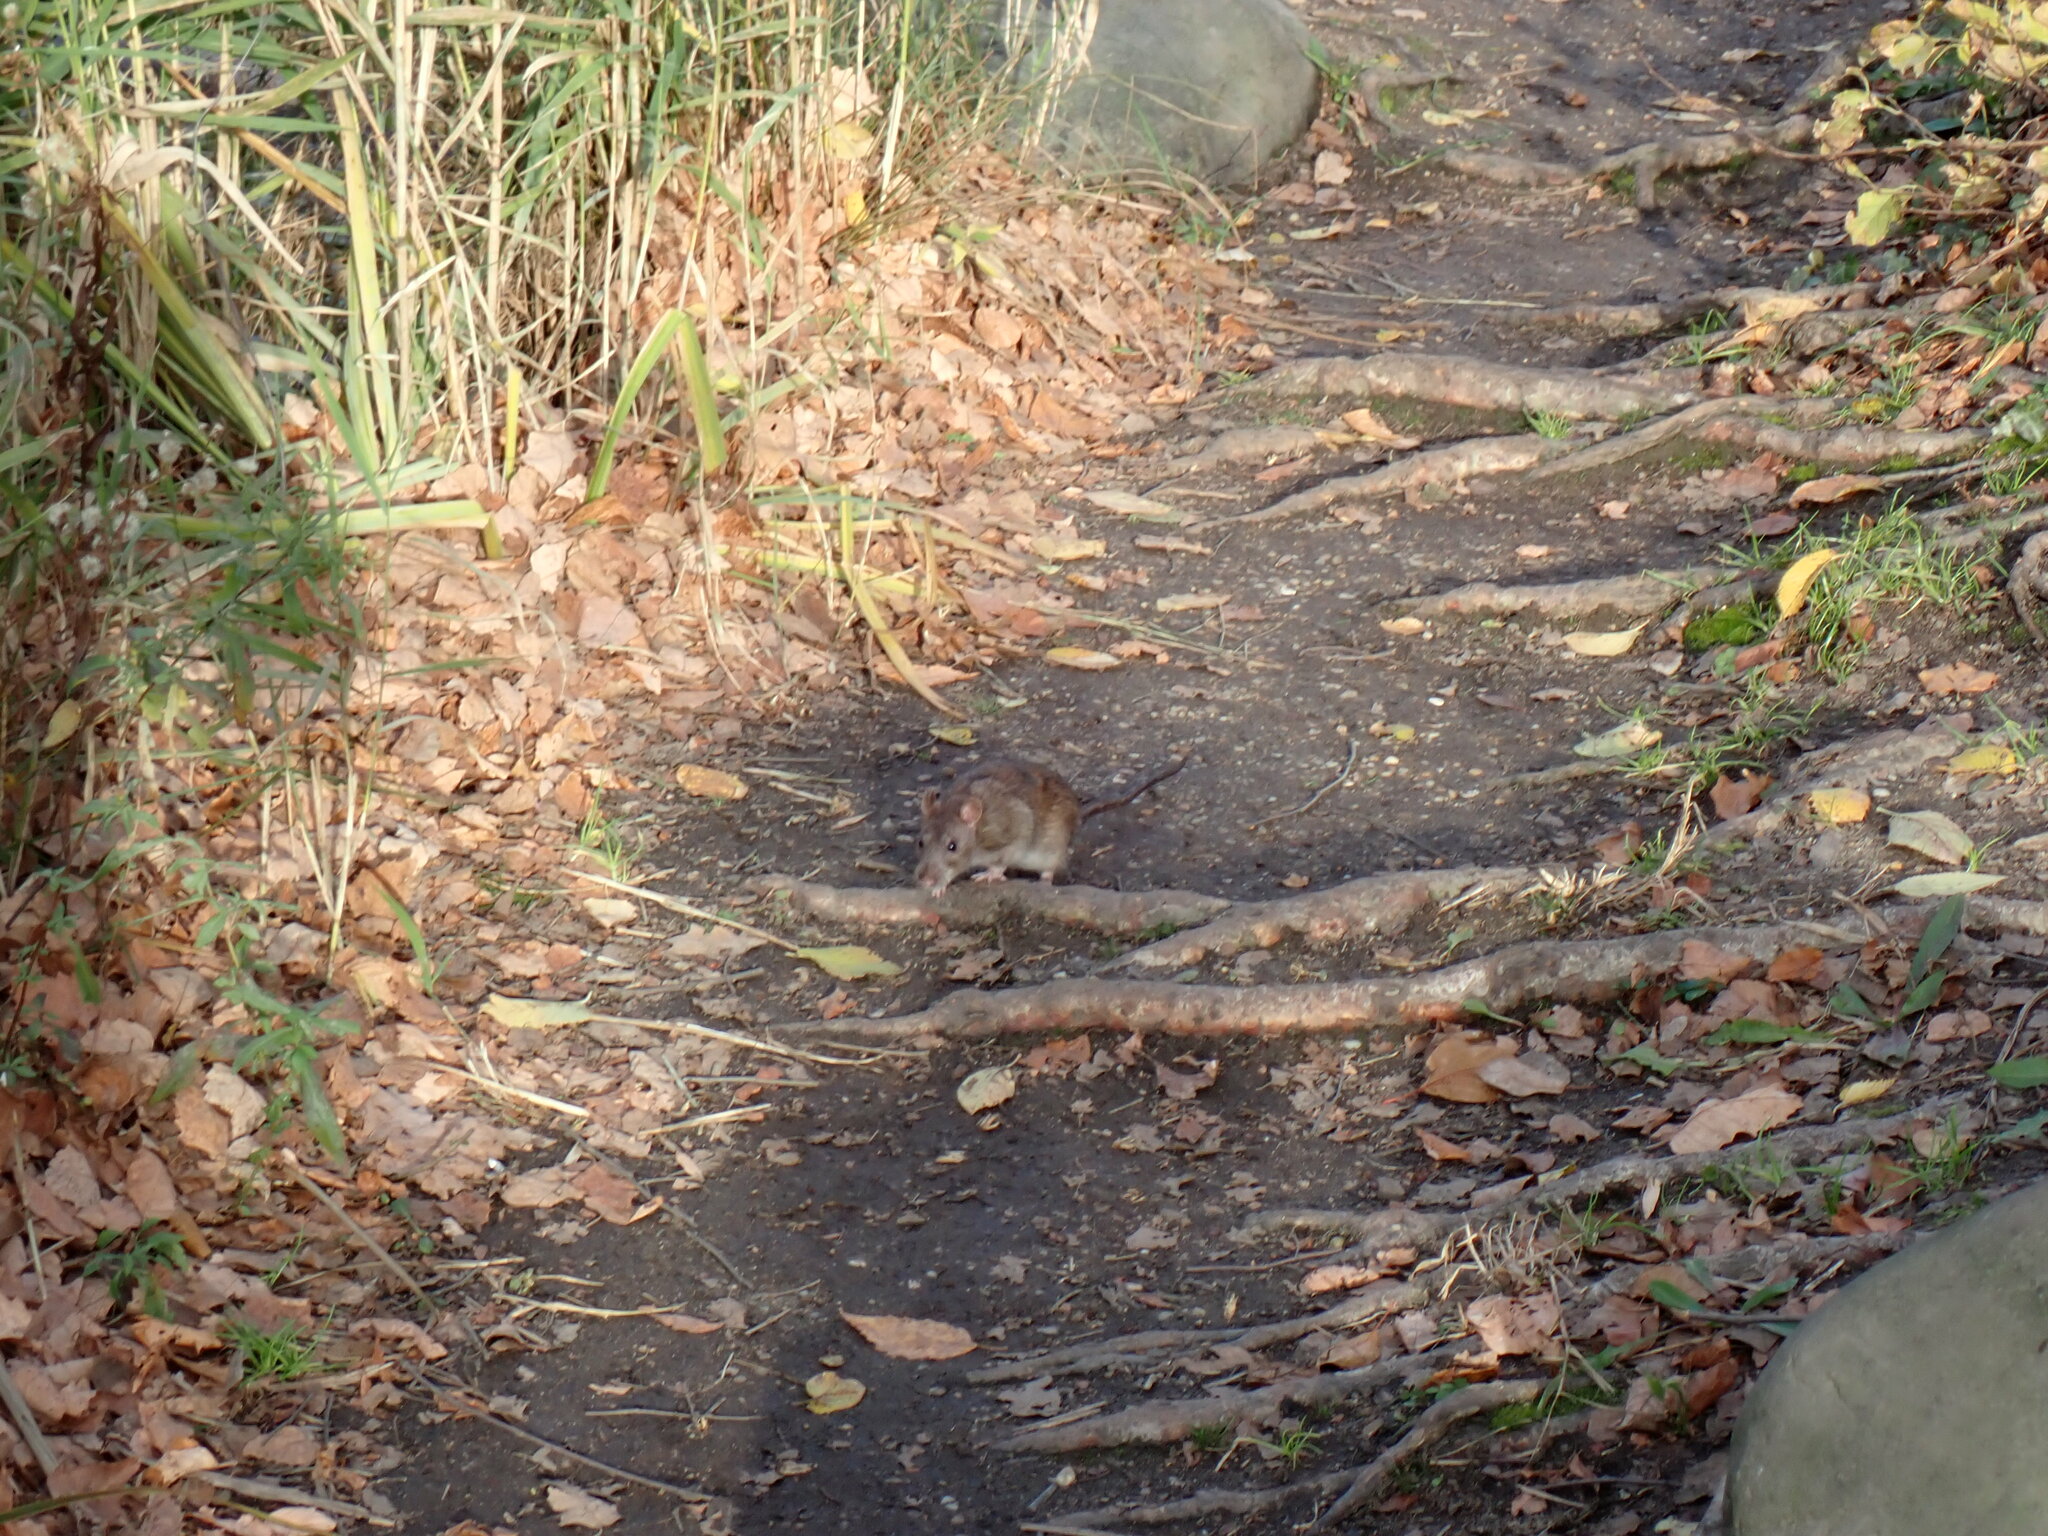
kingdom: Animalia
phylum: Chordata
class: Mammalia
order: Rodentia
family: Muridae
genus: Rattus
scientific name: Rattus norvegicus
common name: Brown rat
